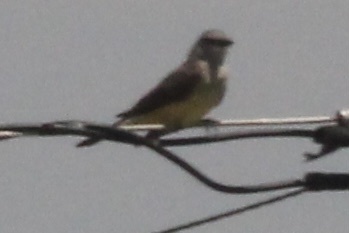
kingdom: Animalia
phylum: Chordata
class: Aves
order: Passeriformes
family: Tyrannidae
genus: Tyrannus
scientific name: Tyrannus verticalis
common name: Western kingbird
